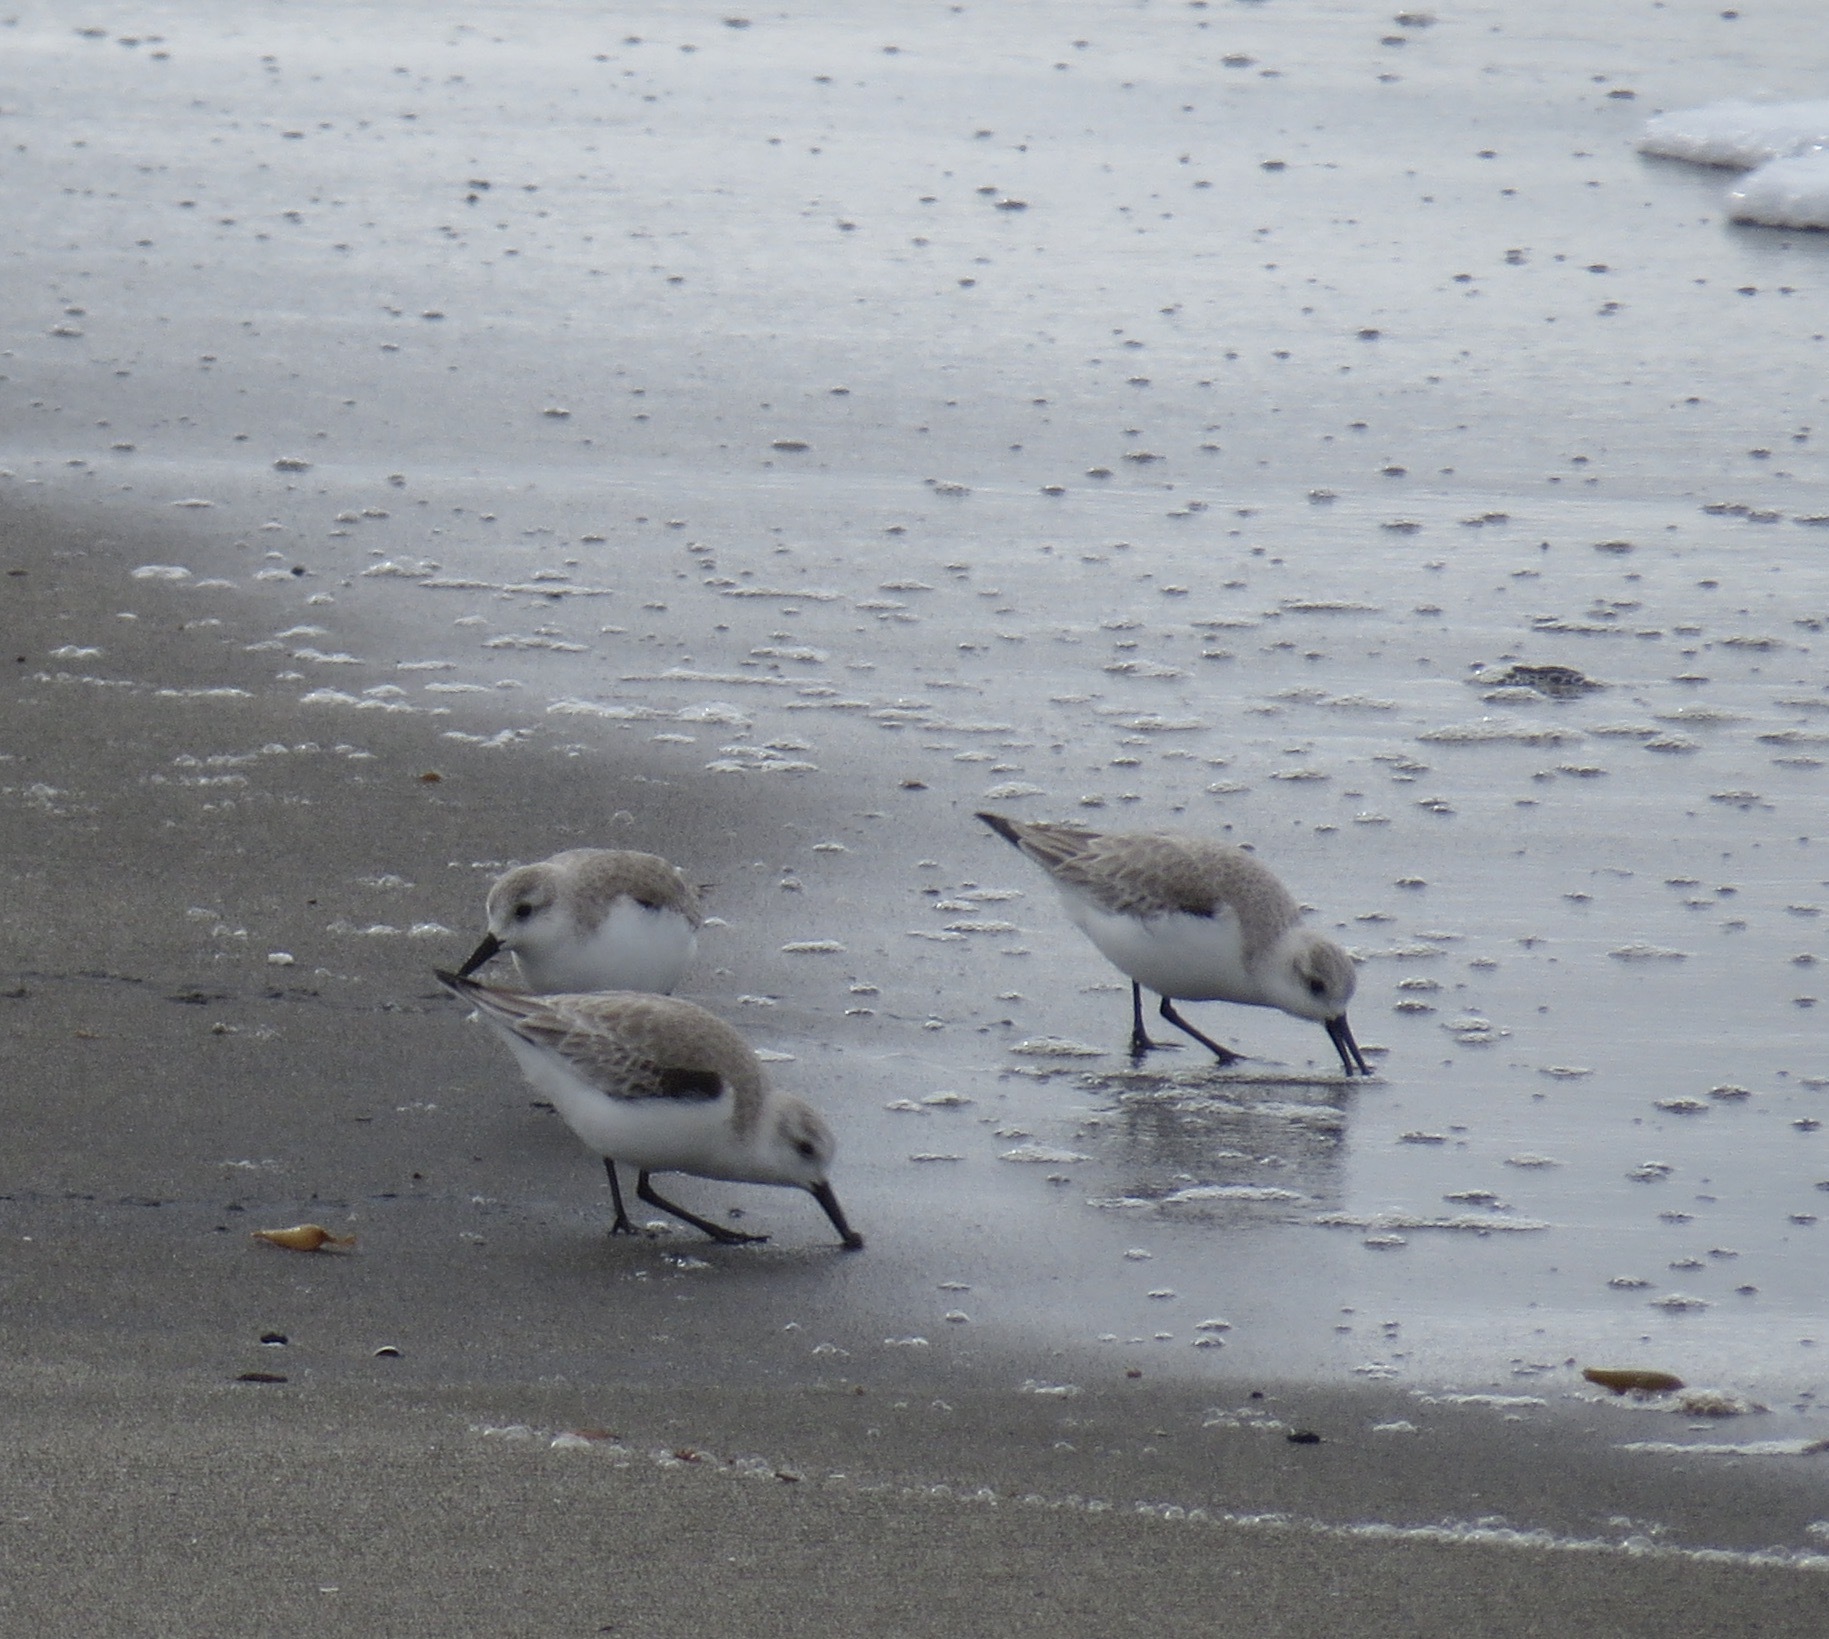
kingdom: Animalia
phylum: Chordata
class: Aves
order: Charadriiformes
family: Scolopacidae
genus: Calidris
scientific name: Calidris alba
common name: Sanderling
